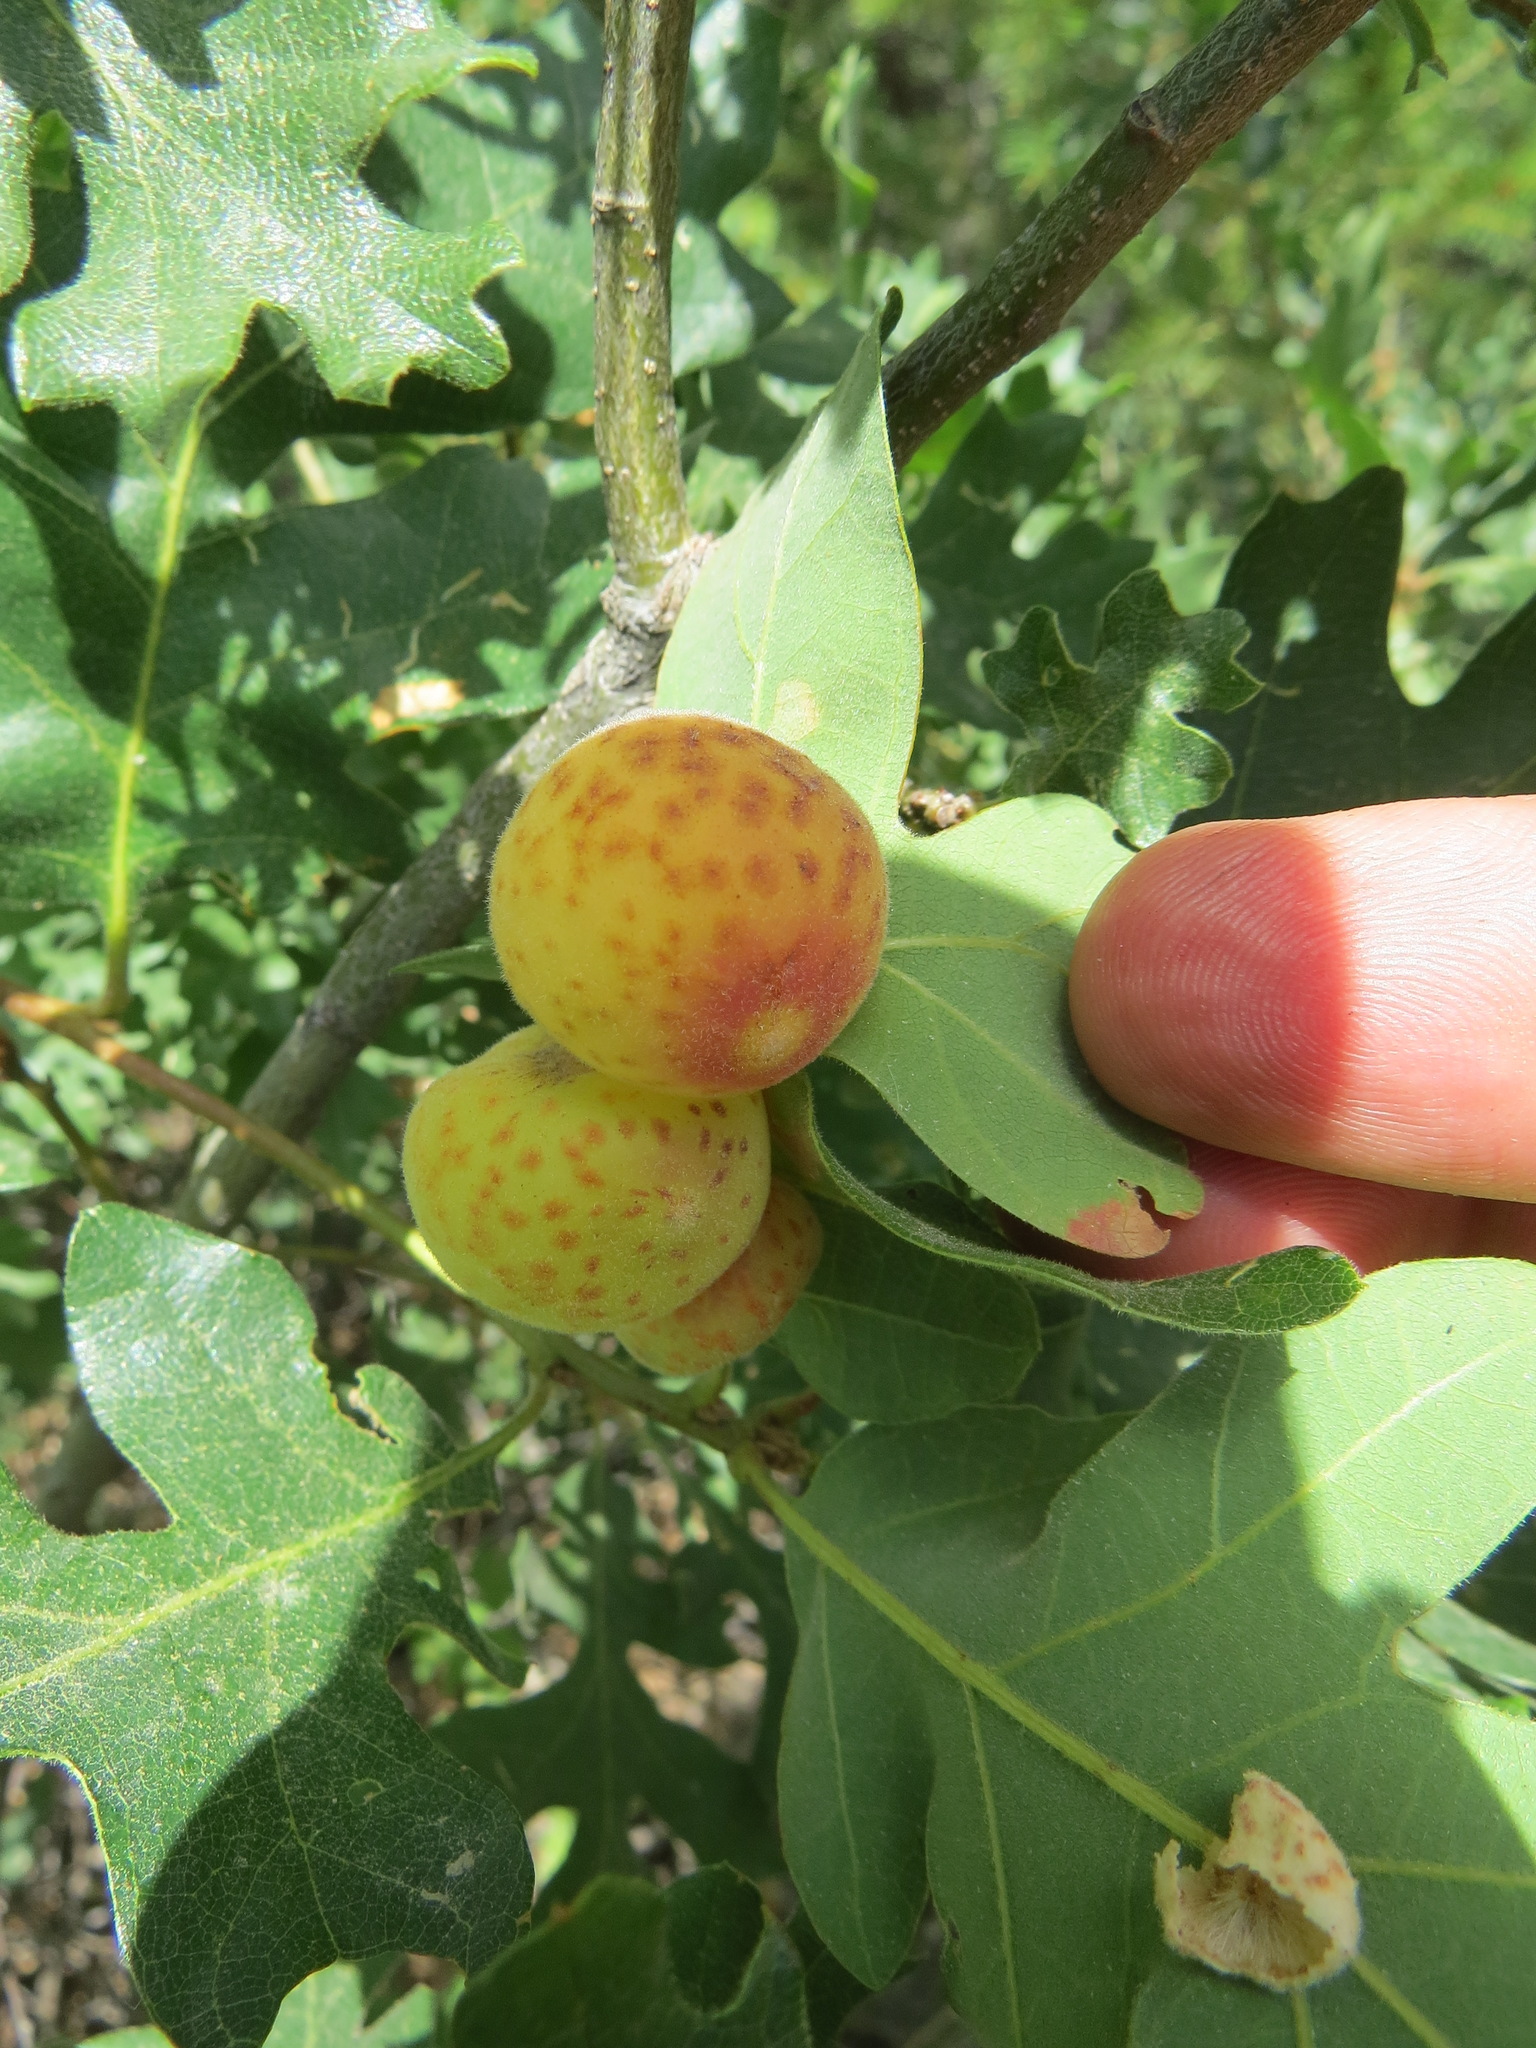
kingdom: Animalia
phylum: Arthropoda
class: Insecta
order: Hymenoptera
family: Cynipidae
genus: Cynips
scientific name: Cynips
